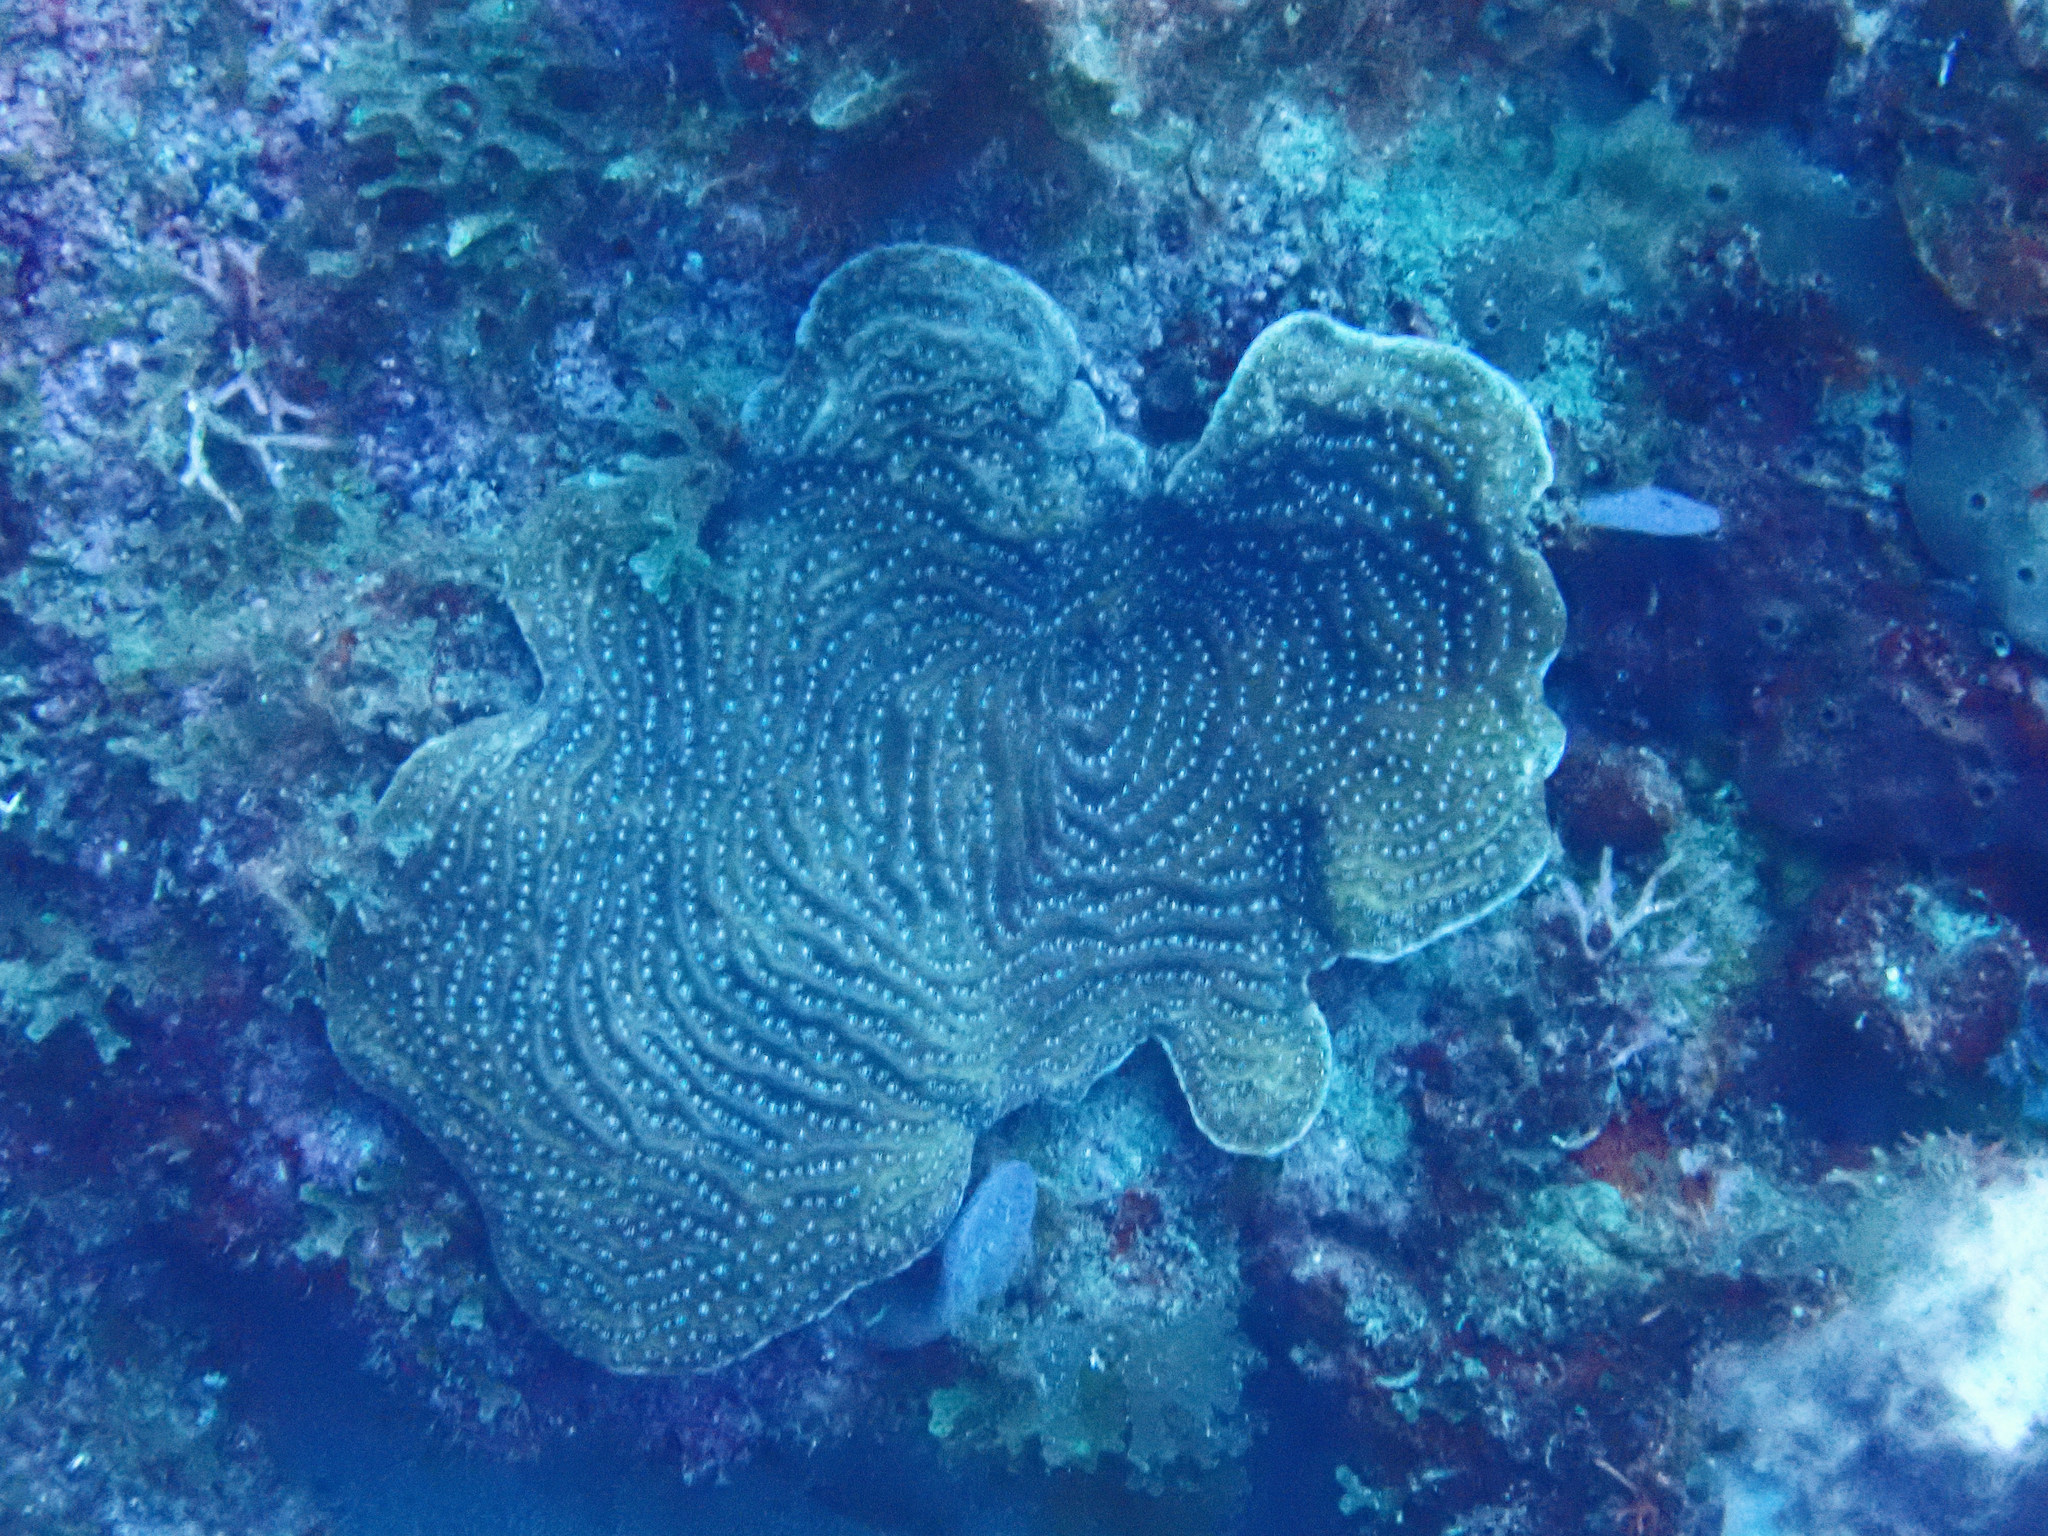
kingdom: Animalia
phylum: Cnidaria
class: Anthozoa
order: Scleractinia
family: Agariciidae
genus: Agaricia
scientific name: Agaricia lamarcki
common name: Lamarck's sheet coral
